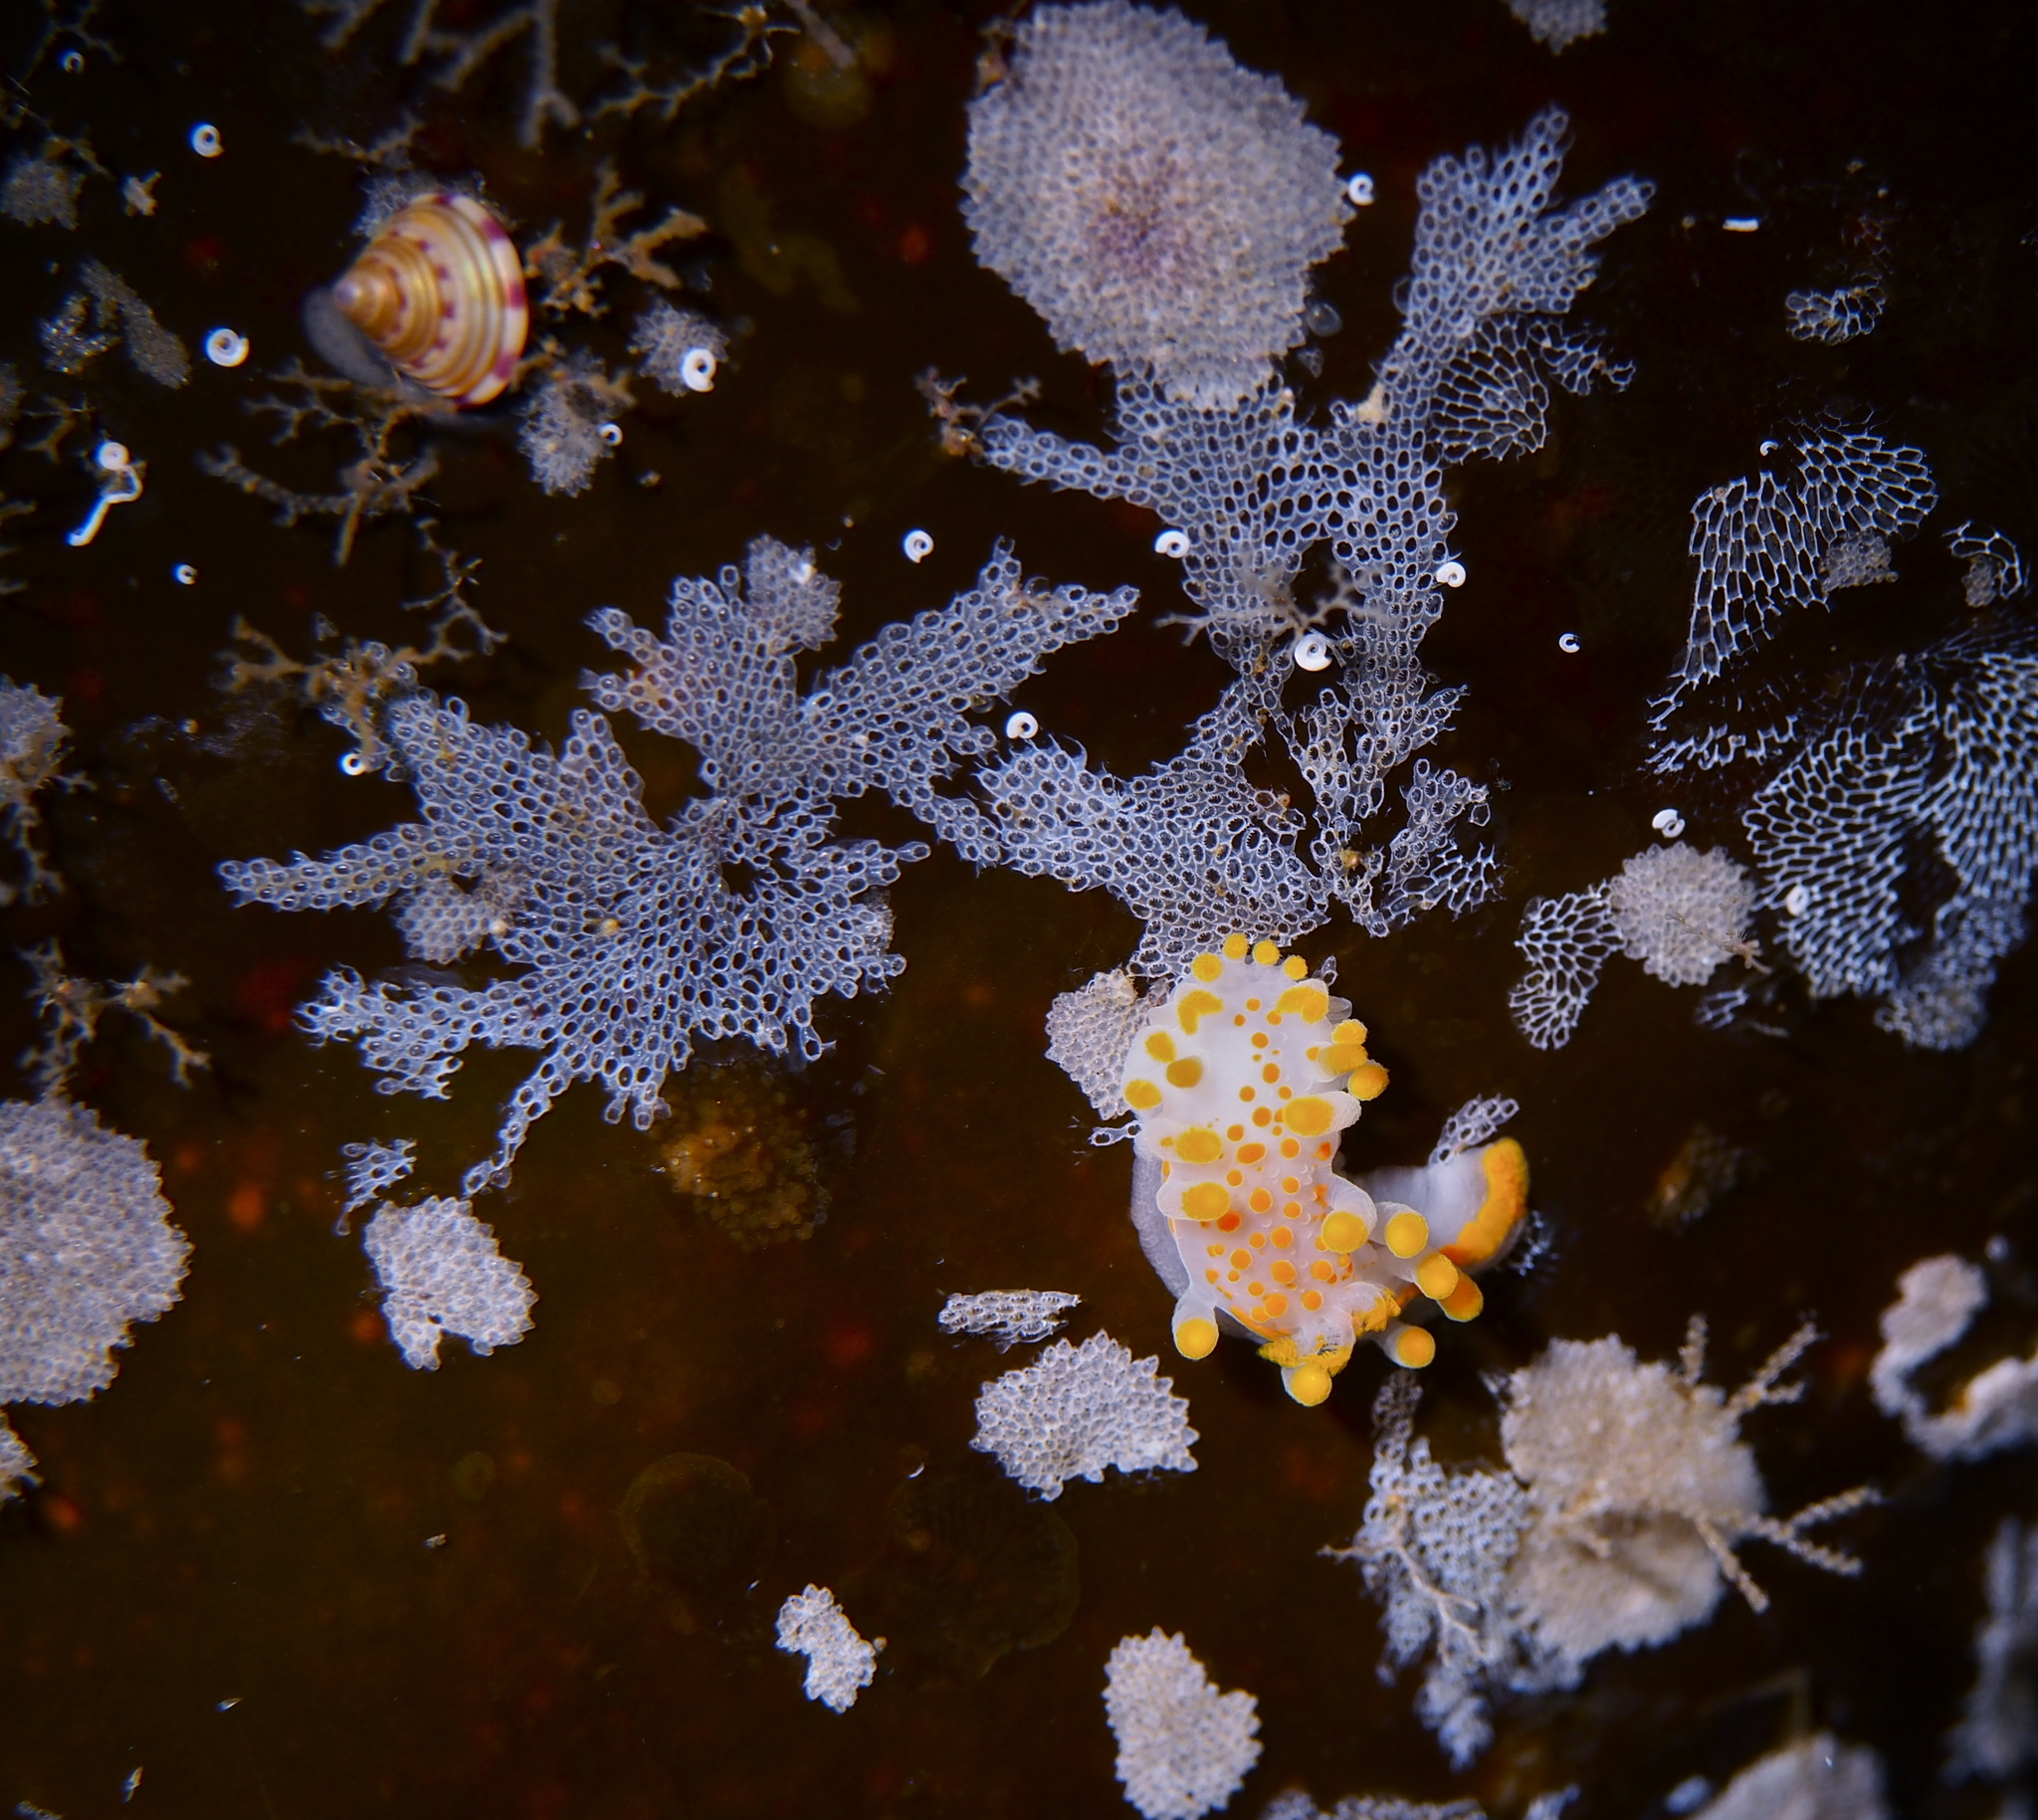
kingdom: Animalia
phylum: Mollusca
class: Gastropoda
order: Nudibranchia
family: Polyceridae
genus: Limacia
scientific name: Limacia clavigera
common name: Orange-clubbed sea slug
